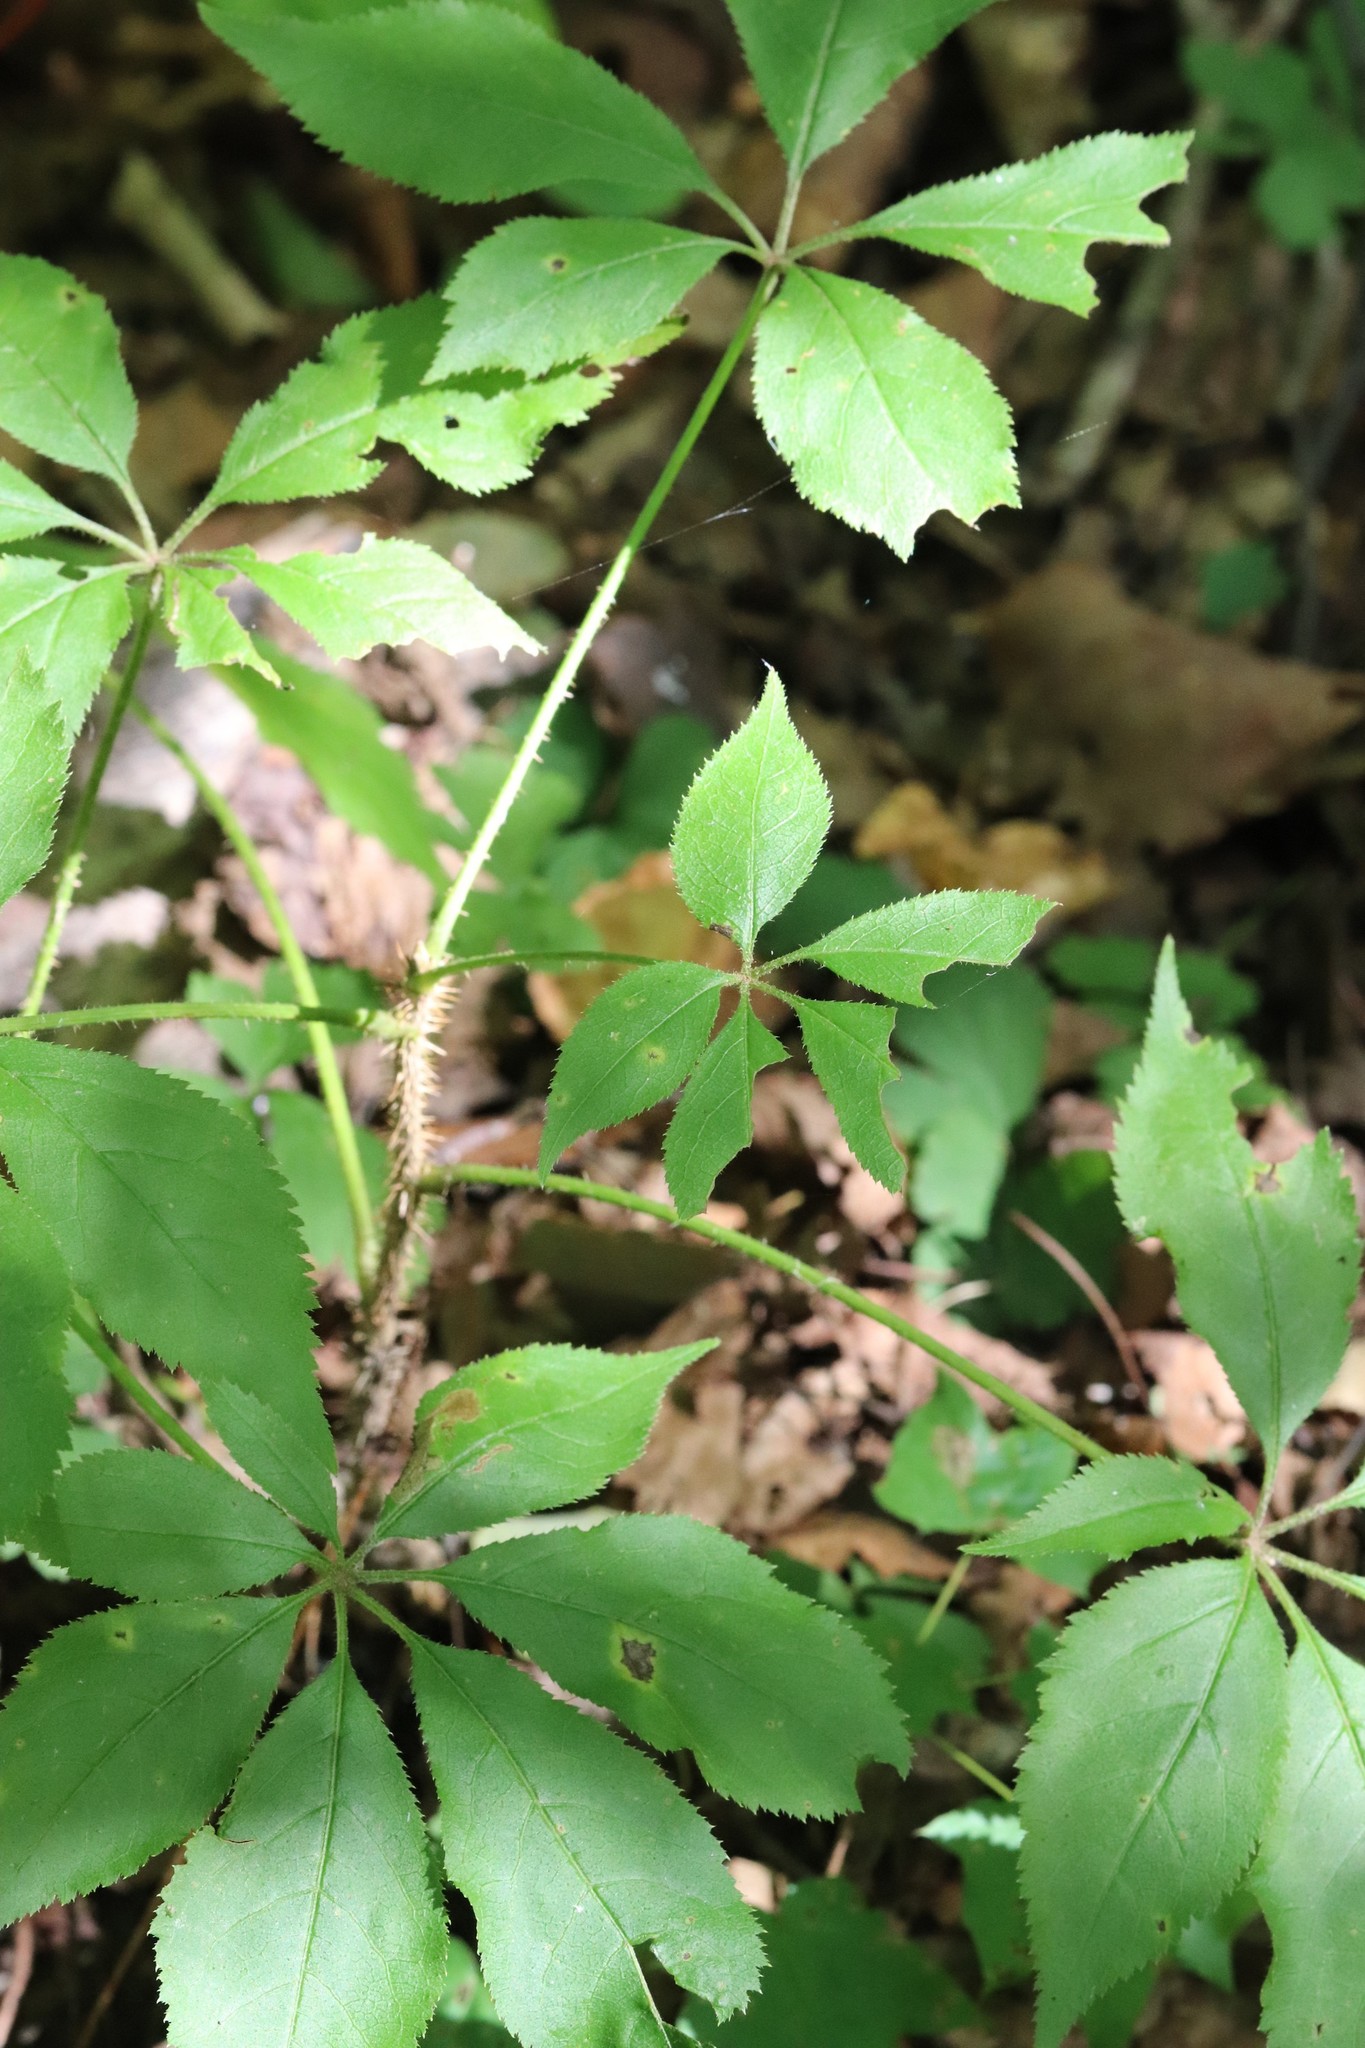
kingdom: Plantae
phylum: Tracheophyta
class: Magnoliopsida
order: Apiales
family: Araliaceae
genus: Eleutherococcus
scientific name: Eleutherococcus senticosus
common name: Siberian-ginseng
